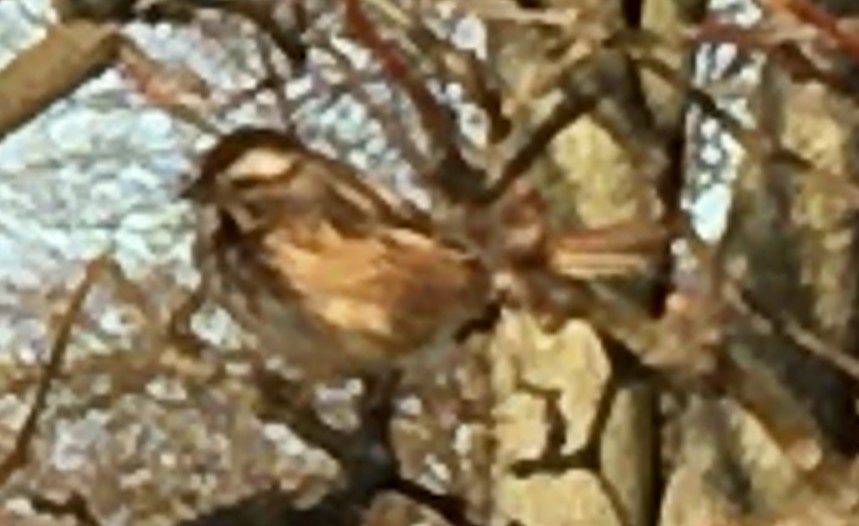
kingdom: Animalia
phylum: Chordata
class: Aves
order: Passeriformes
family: Passerellidae
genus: Melospiza
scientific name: Melospiza melodia
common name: Song sparrow
